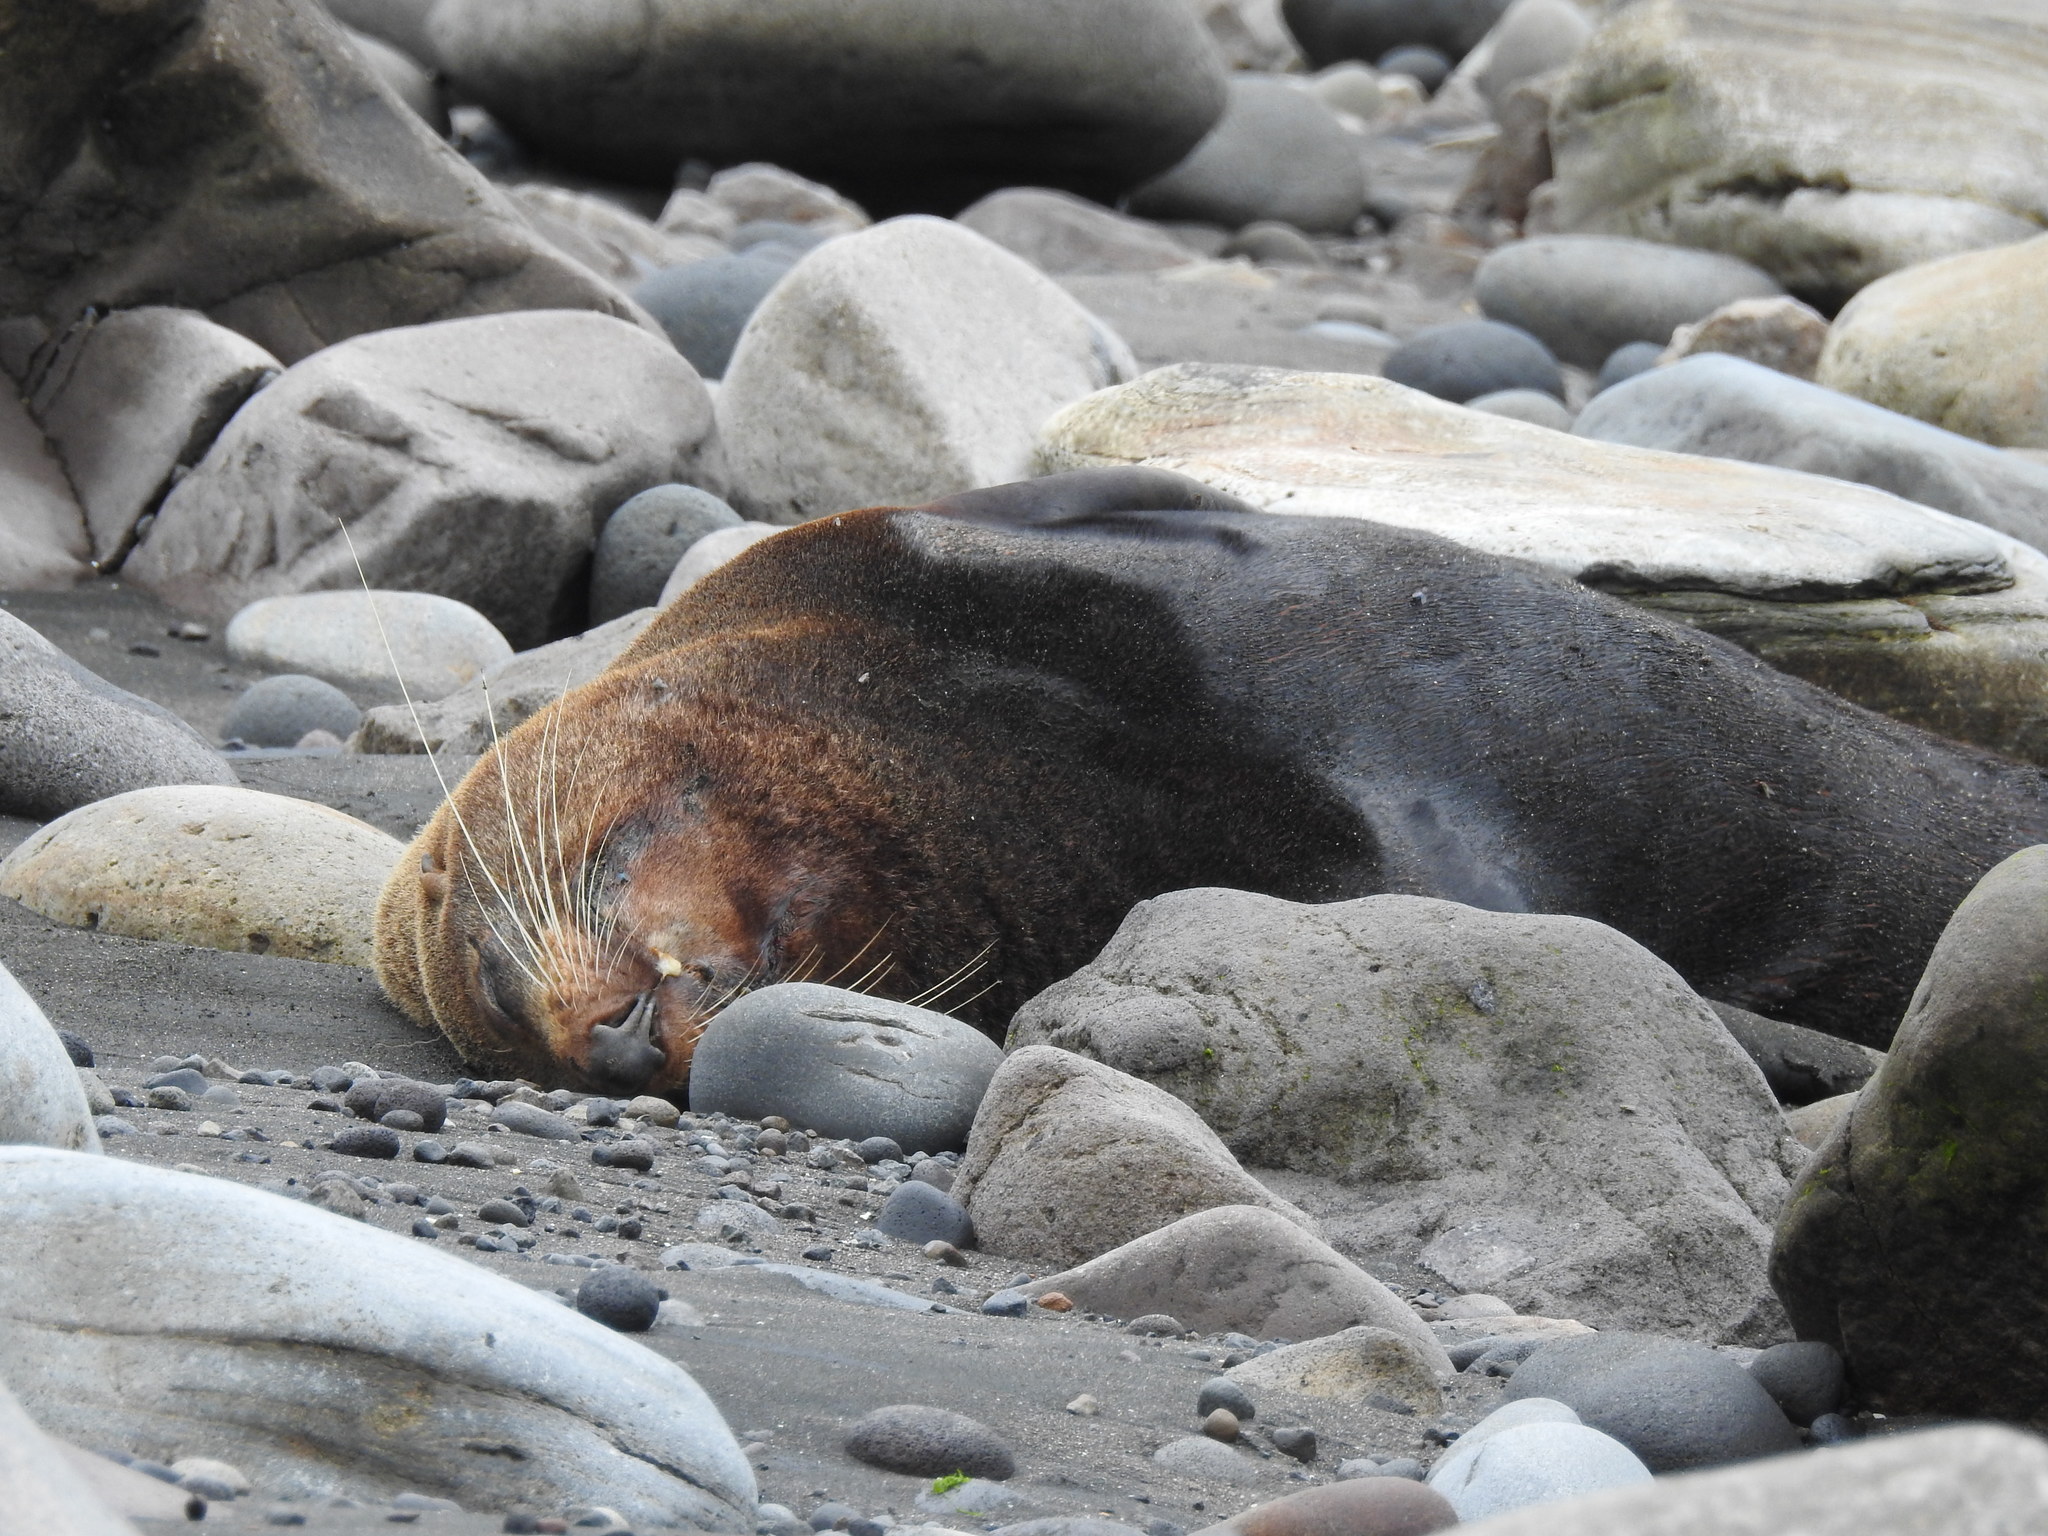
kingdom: Animalia
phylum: Chordata
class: Mammalia
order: Carnivora
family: Otariidae
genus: Arctocephalus
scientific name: Arctocephalus forsteri
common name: New zealand fur seal
